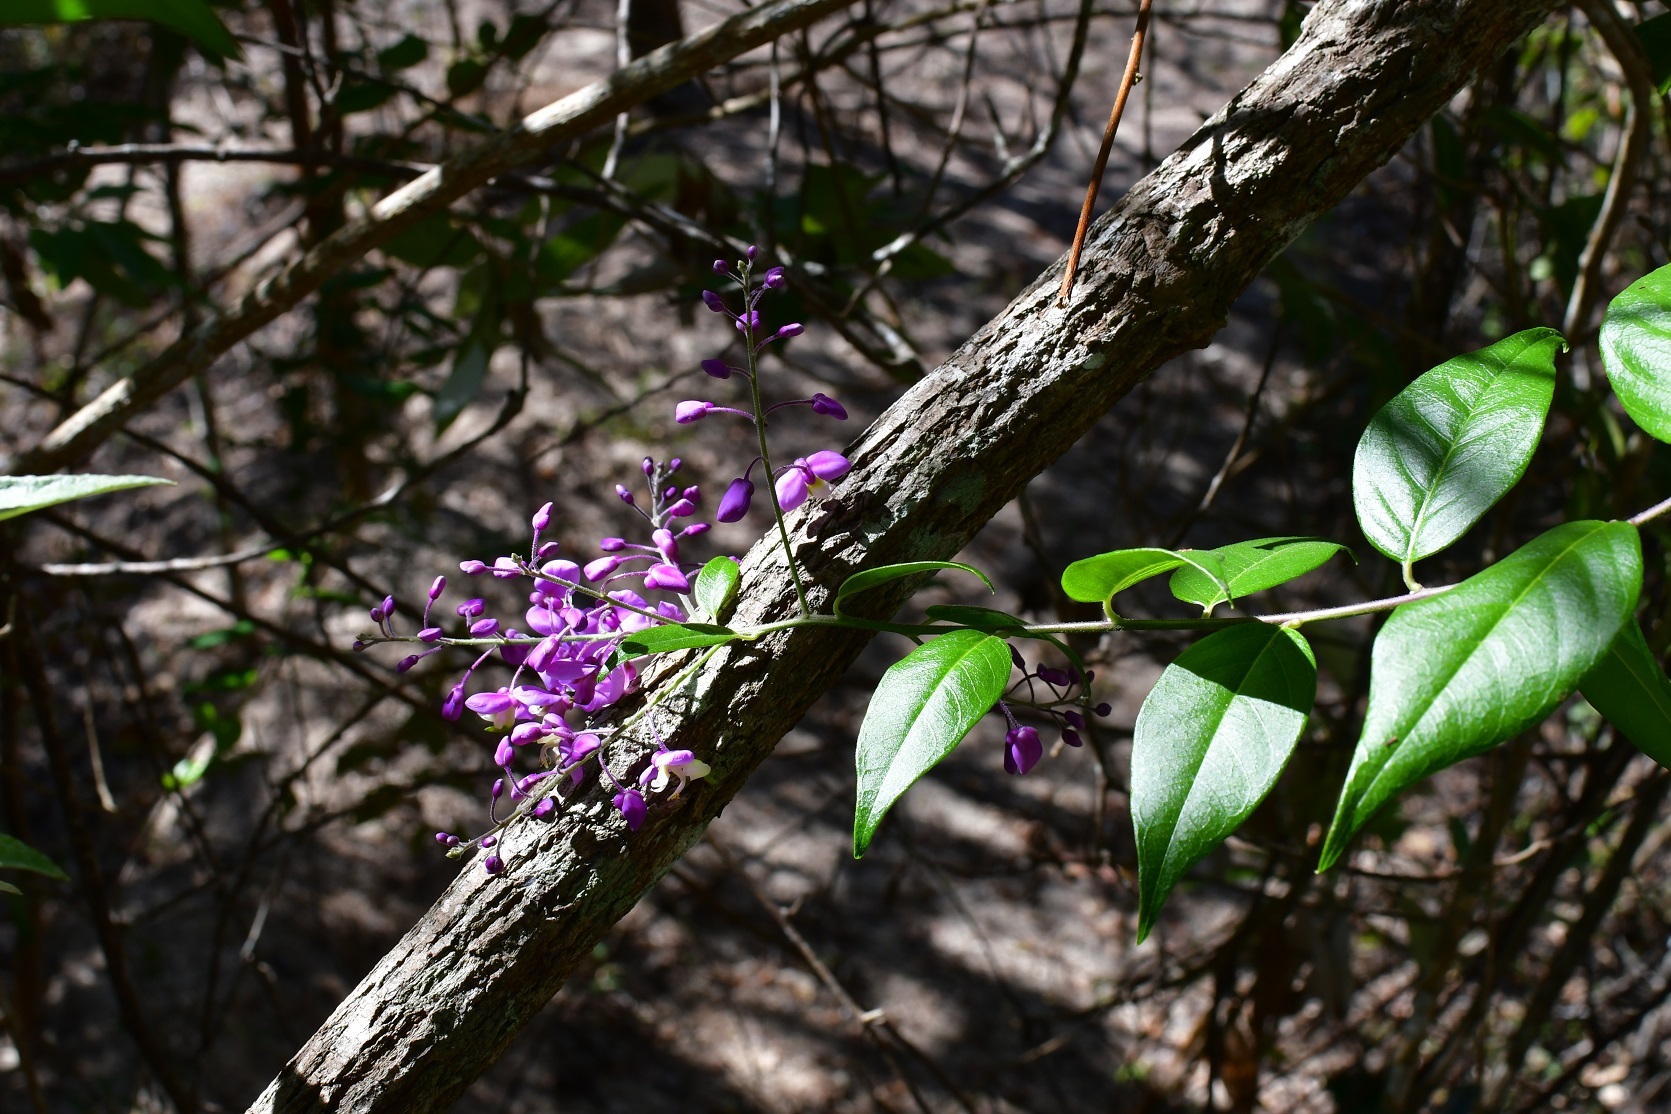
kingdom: Plantae
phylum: Tracheophyta
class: Magnoliopsida
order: Fabales
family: Polygalaceae
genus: Asemeia
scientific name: Asemeia floribunda
